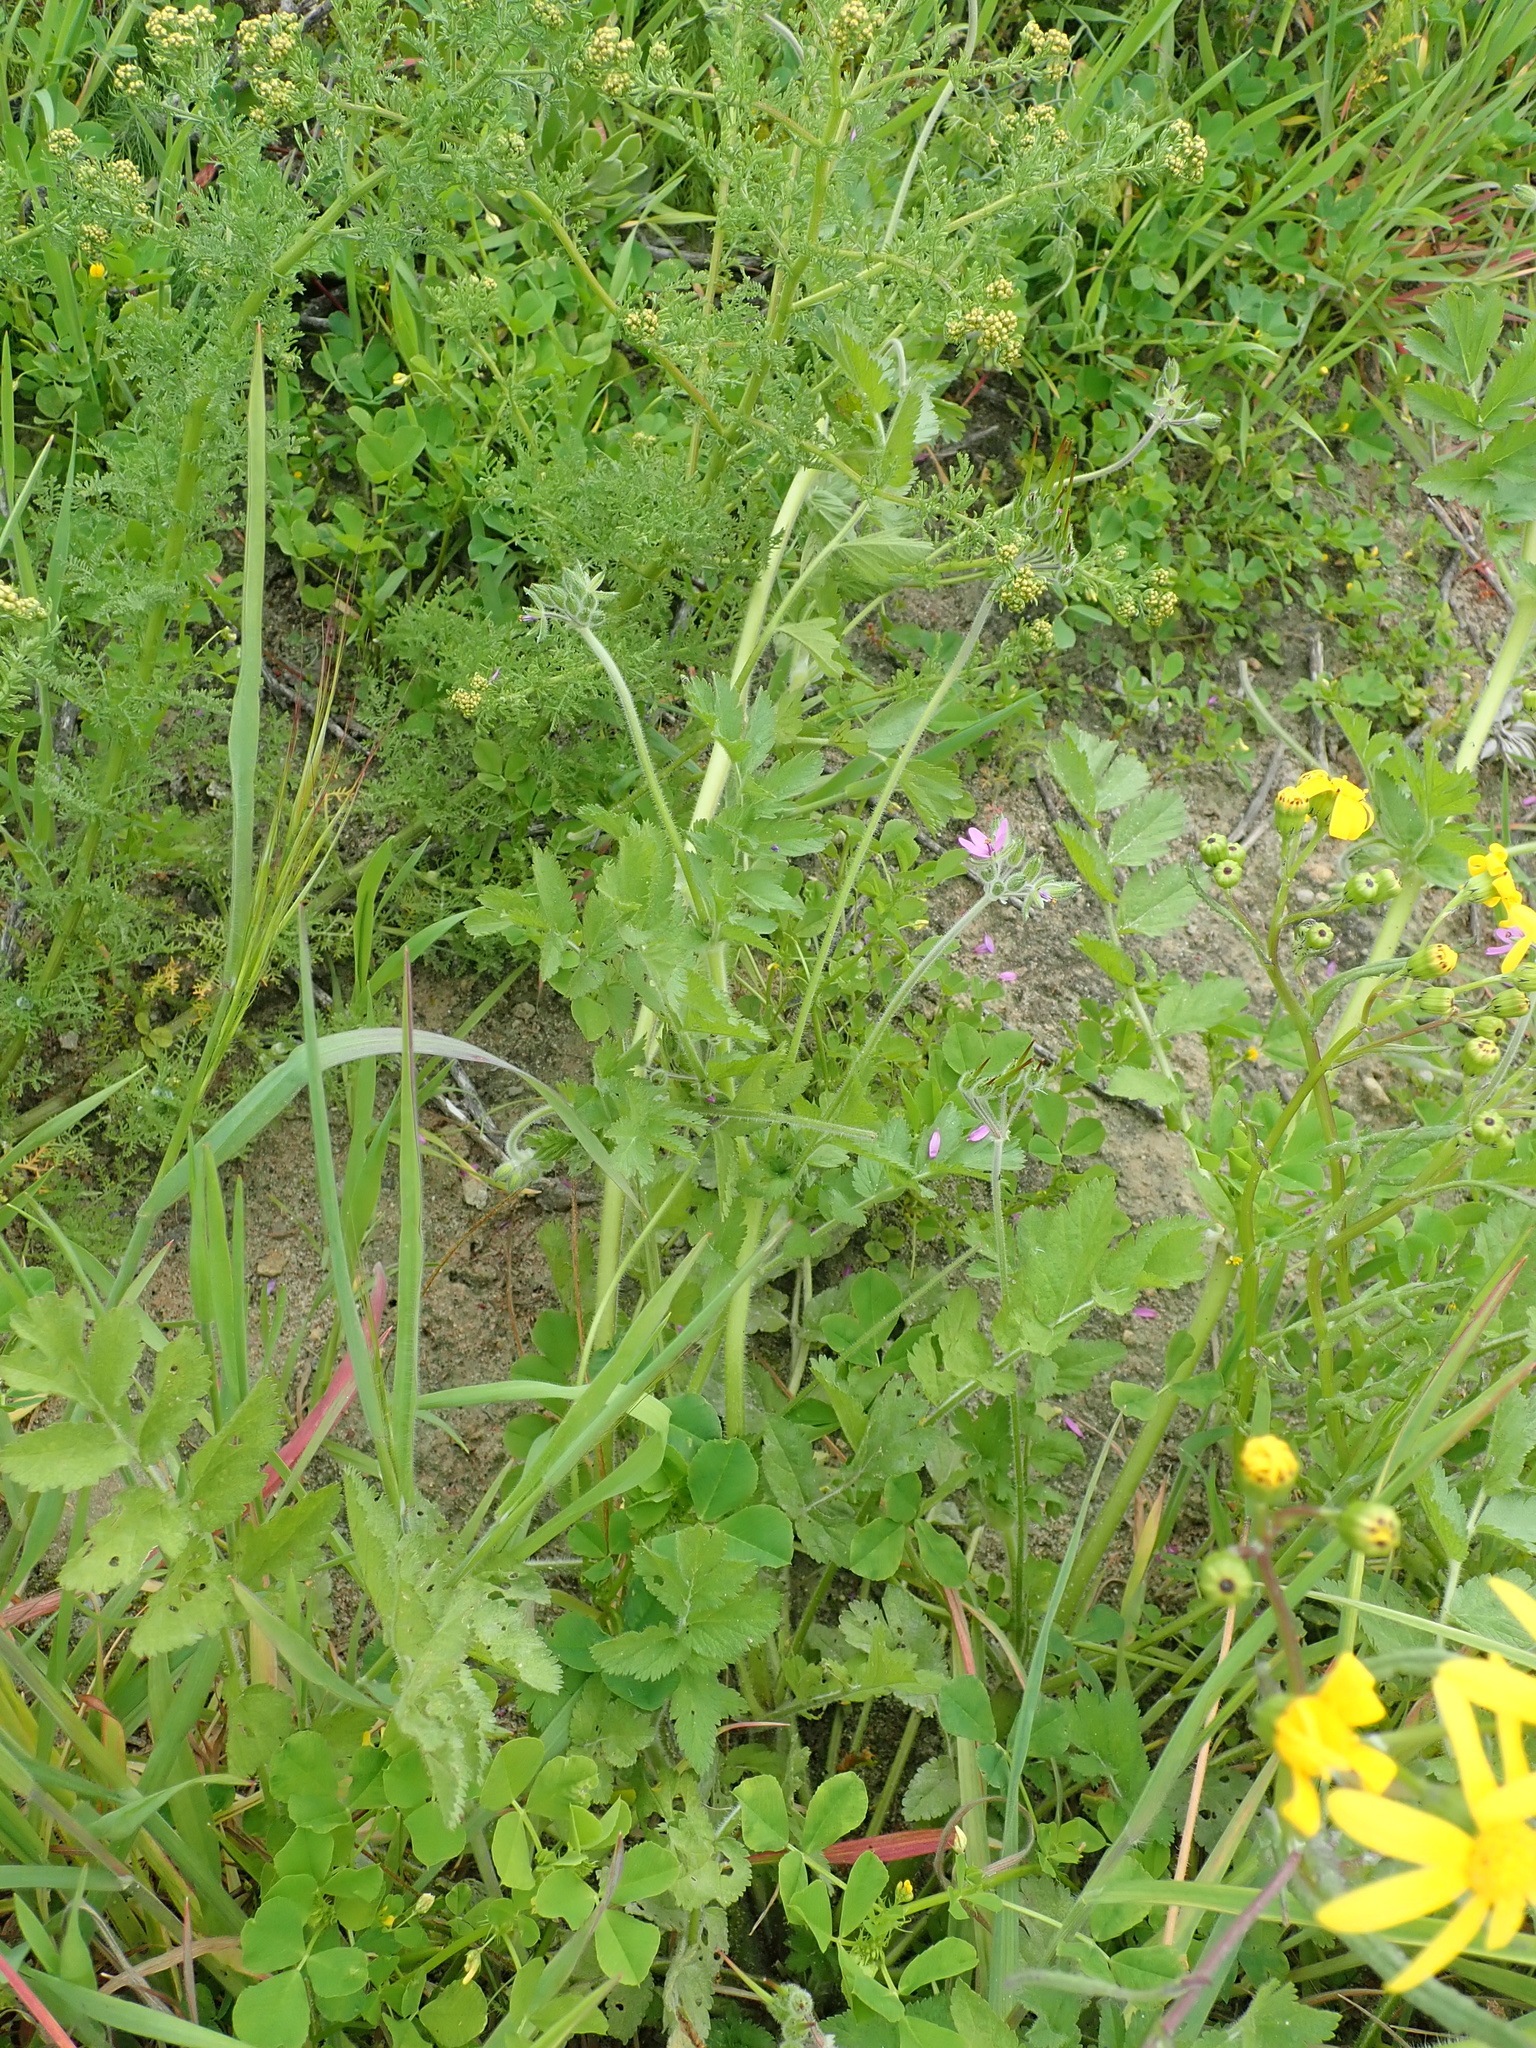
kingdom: Plantae
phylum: Tracheophyta
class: Magnoliopsida
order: Geraniales
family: Geraniaceae
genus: Erodium
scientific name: Erodium moschatum
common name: Musk stork's-bill
